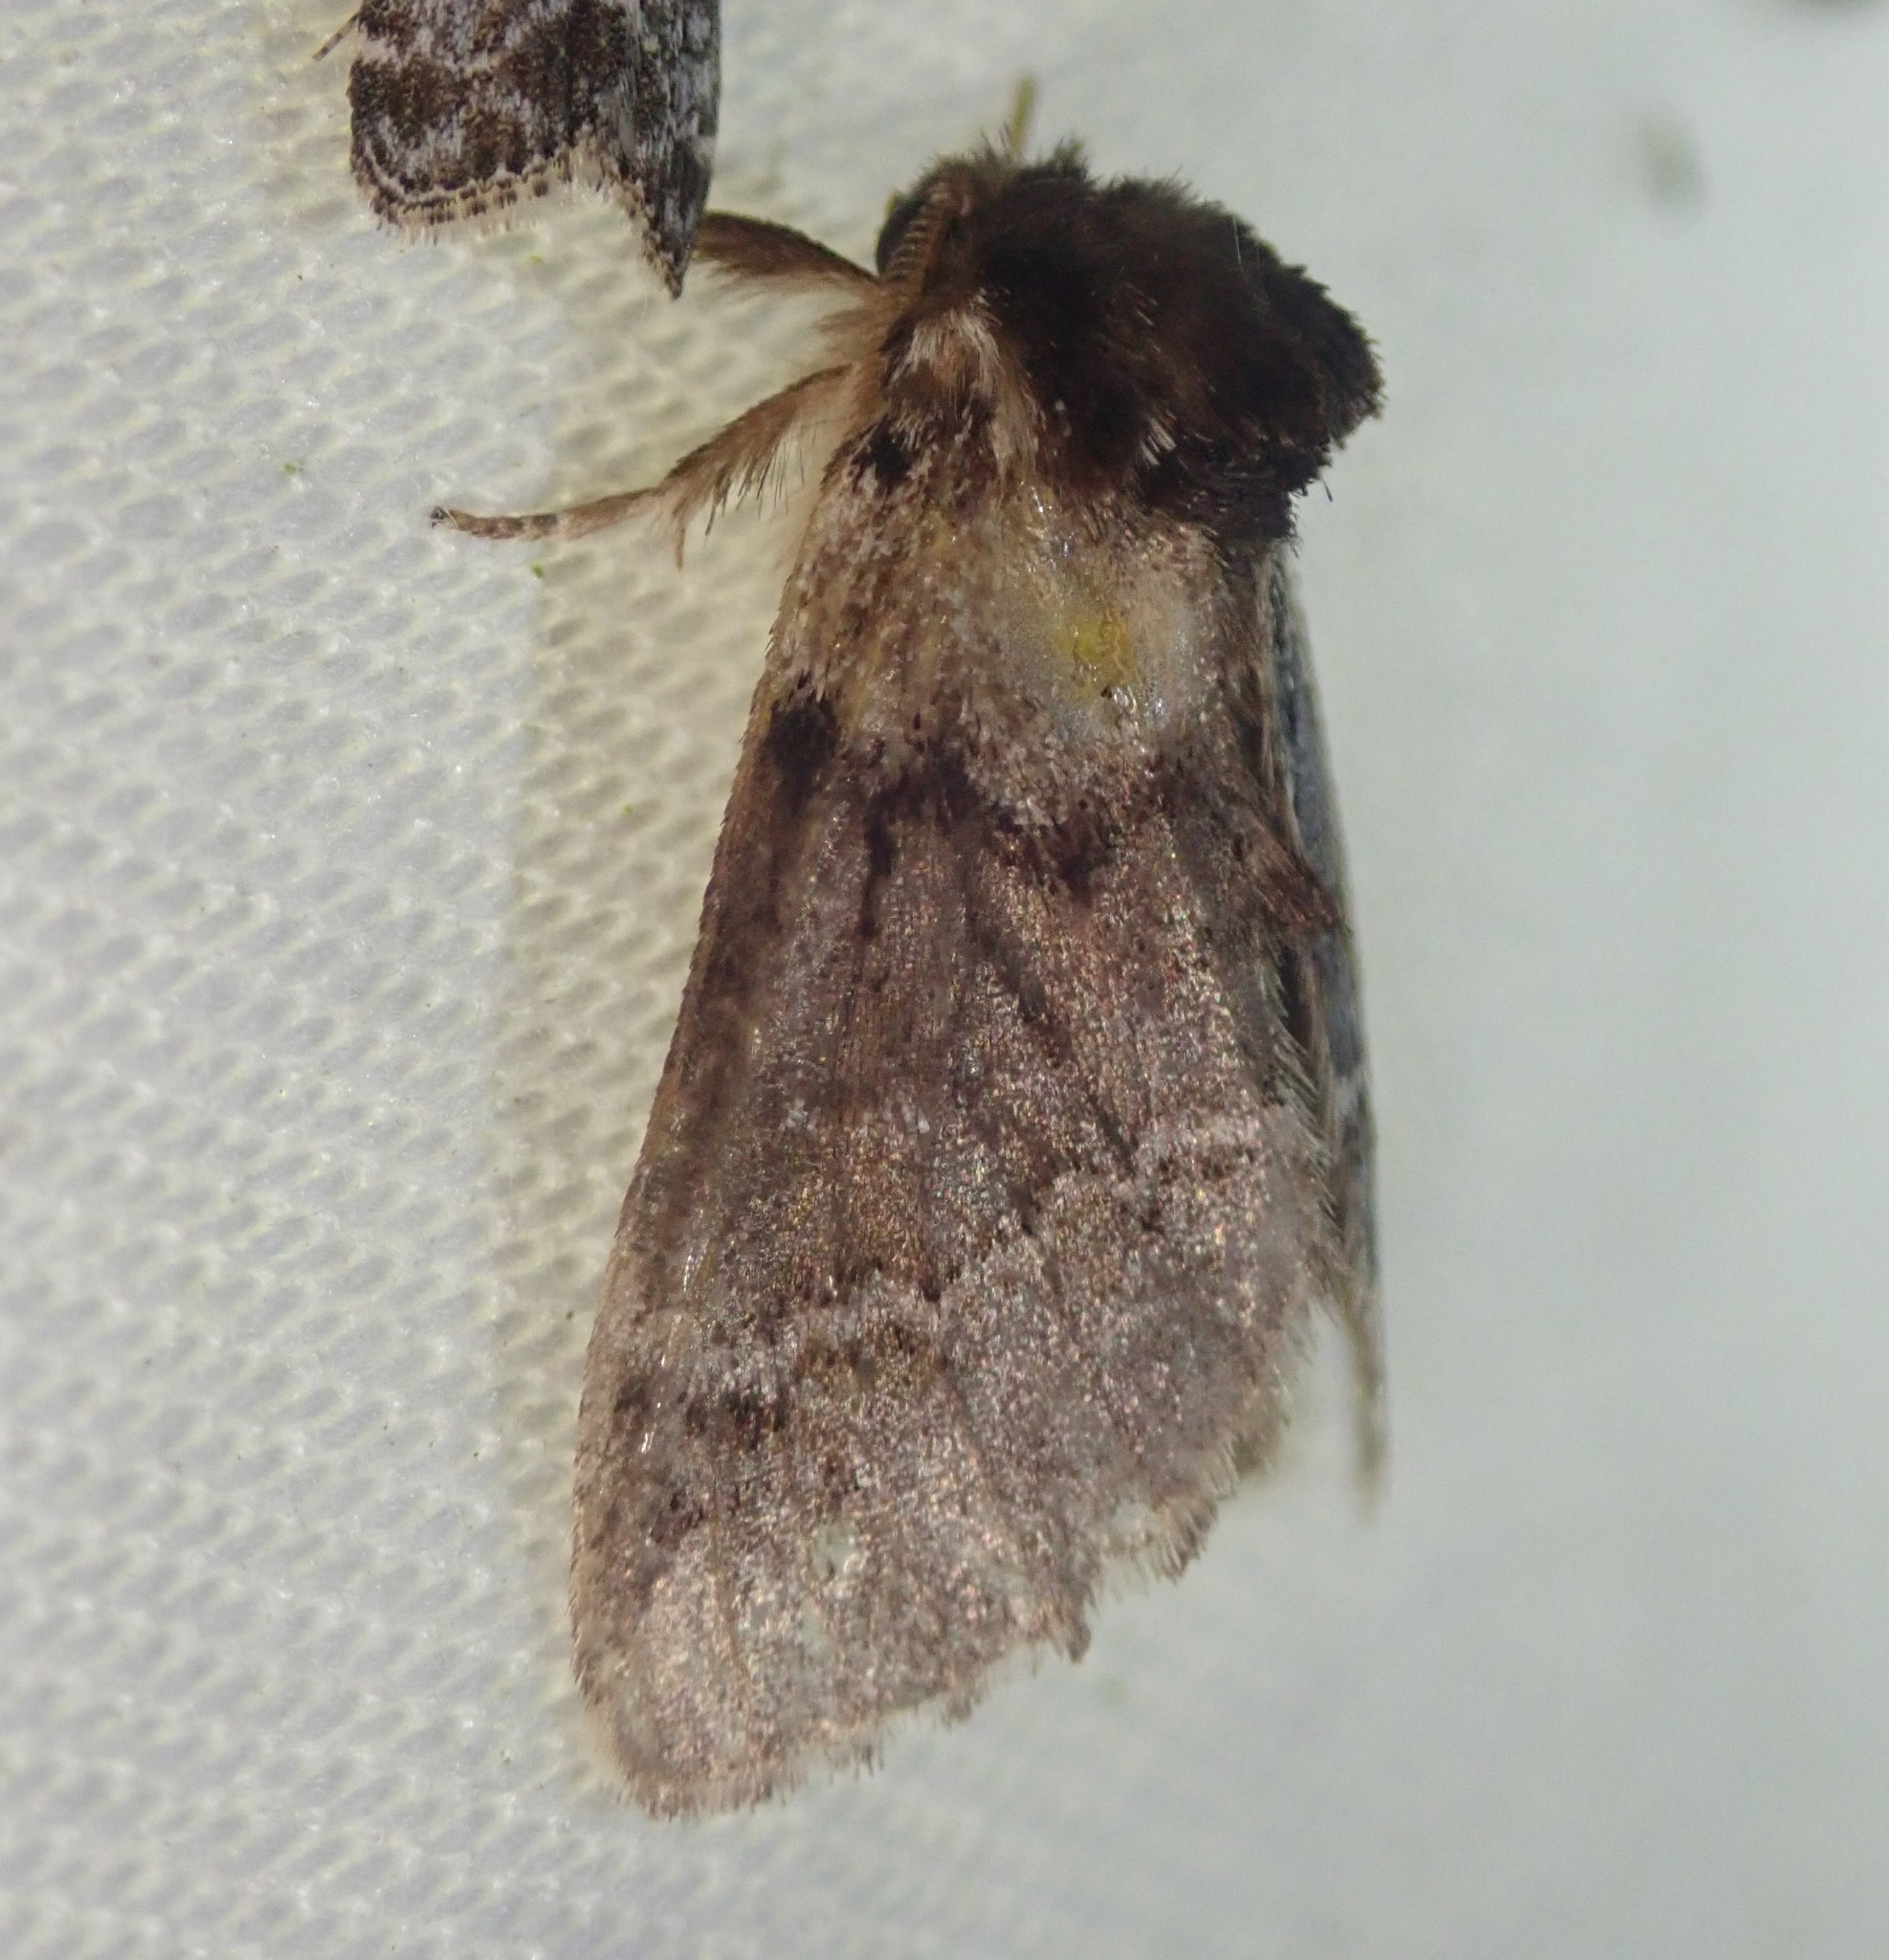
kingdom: Animalia
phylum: Arthropoda
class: Insecta
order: Lepidoptera
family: Notodontidae
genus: Drymonia
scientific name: Drymonia obliterata
